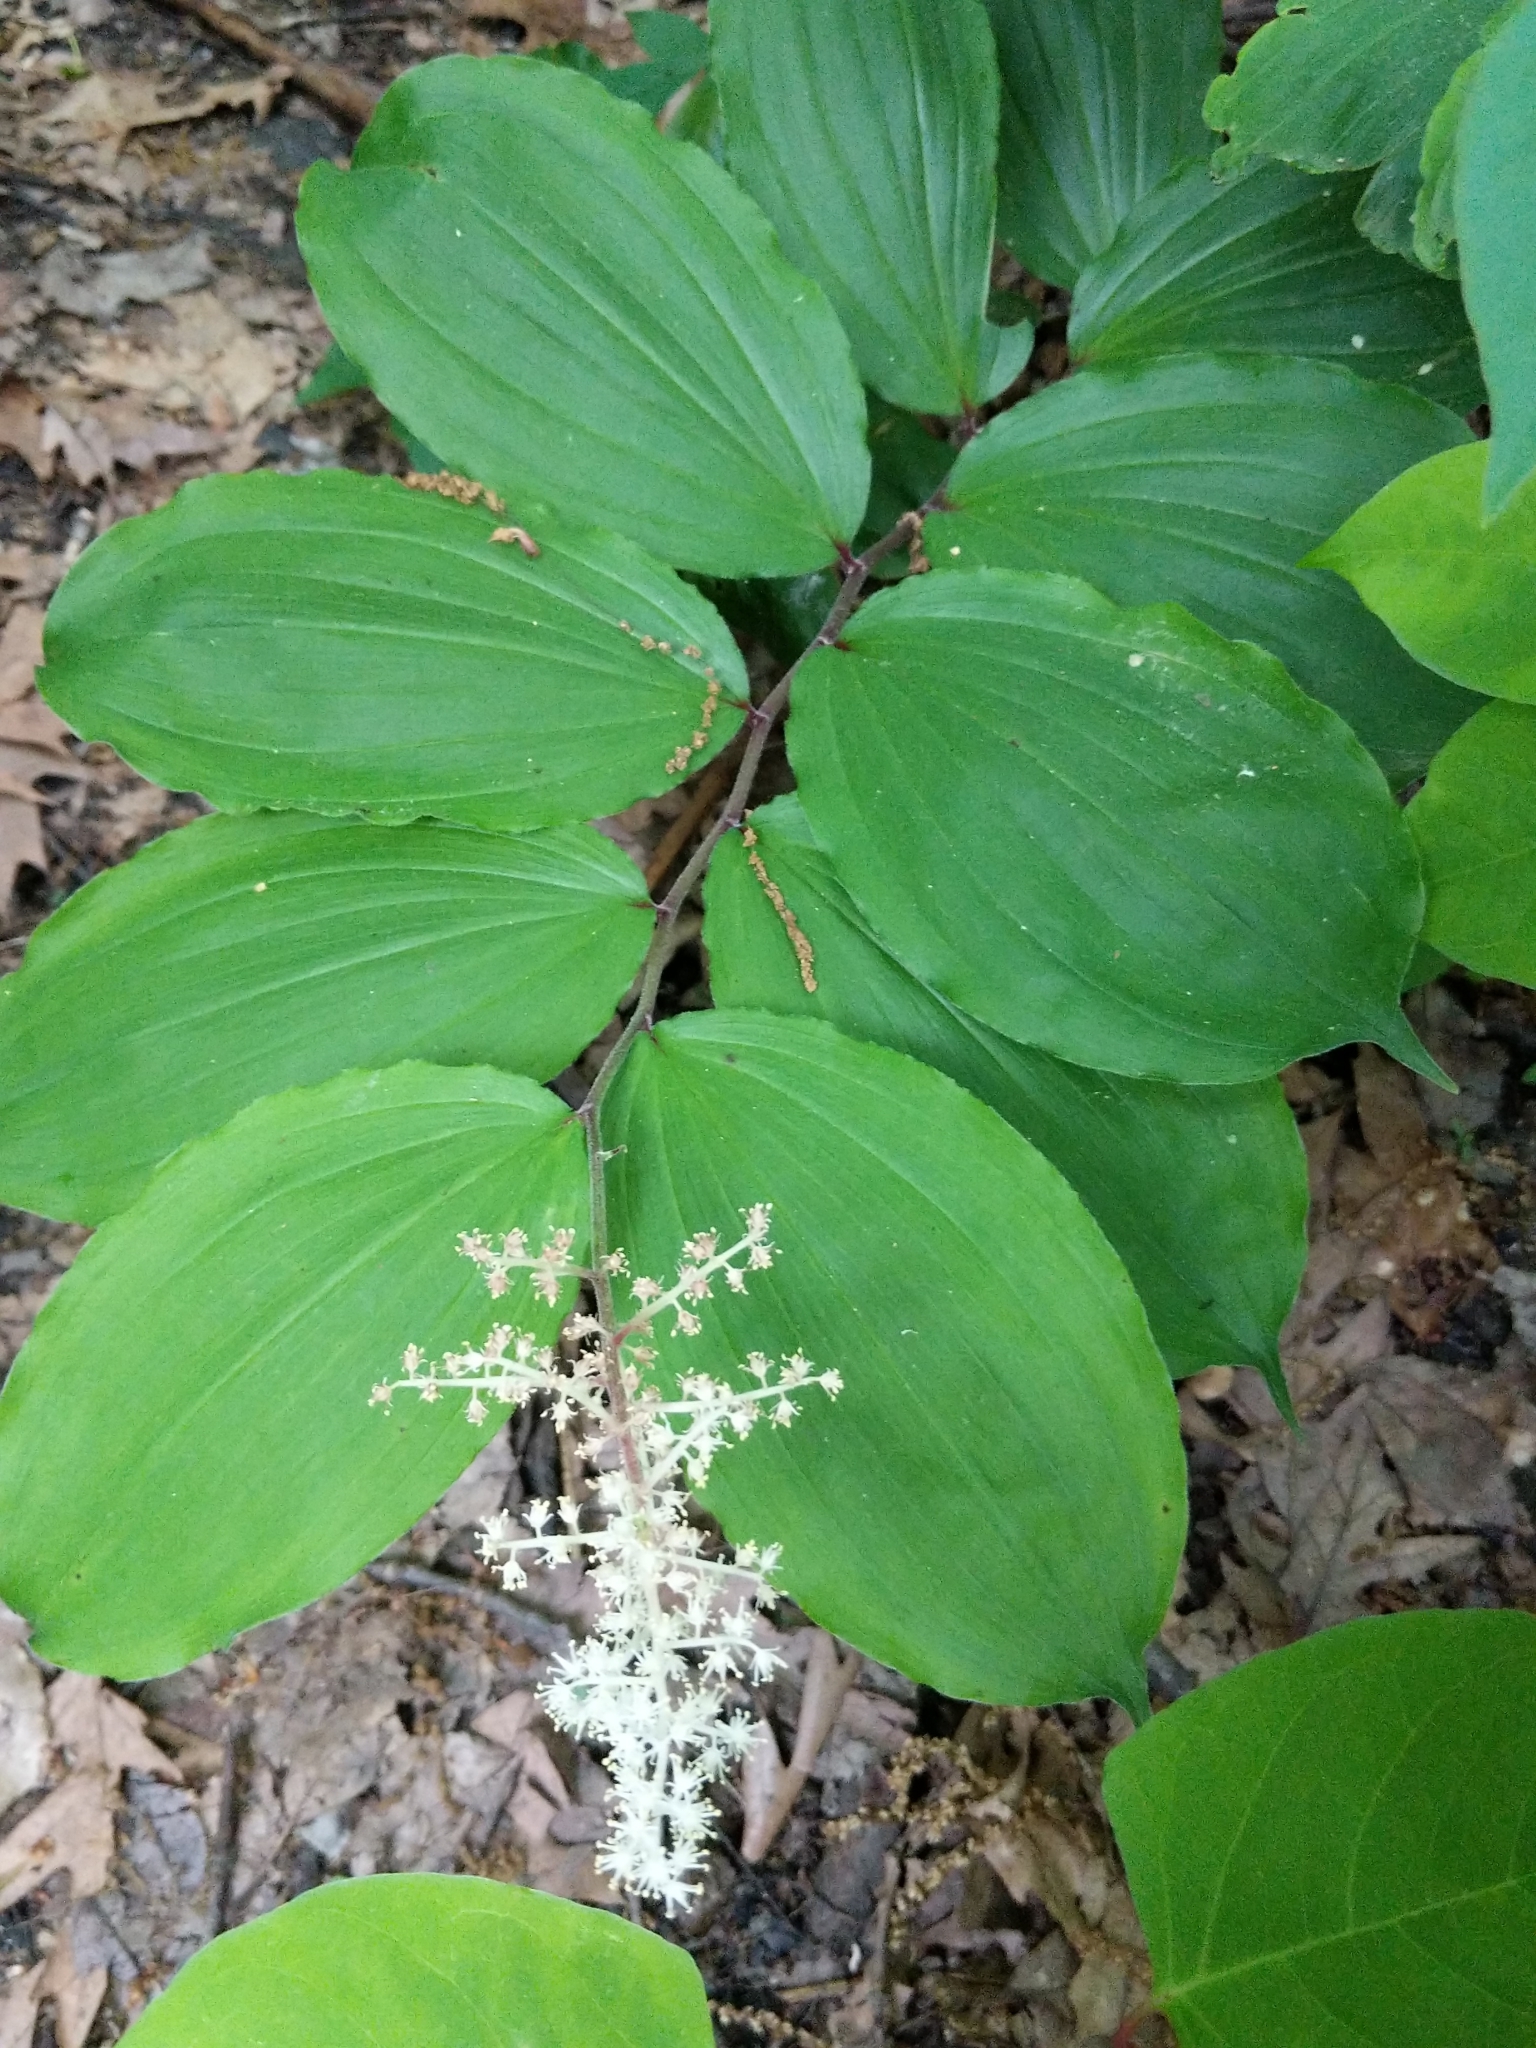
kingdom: Plantae
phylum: Tracheophyta
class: Liliopsida
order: Asparagales
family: Asparagaceae
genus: Maianthemum
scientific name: Maianthemum racemosum
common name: False spikenard
